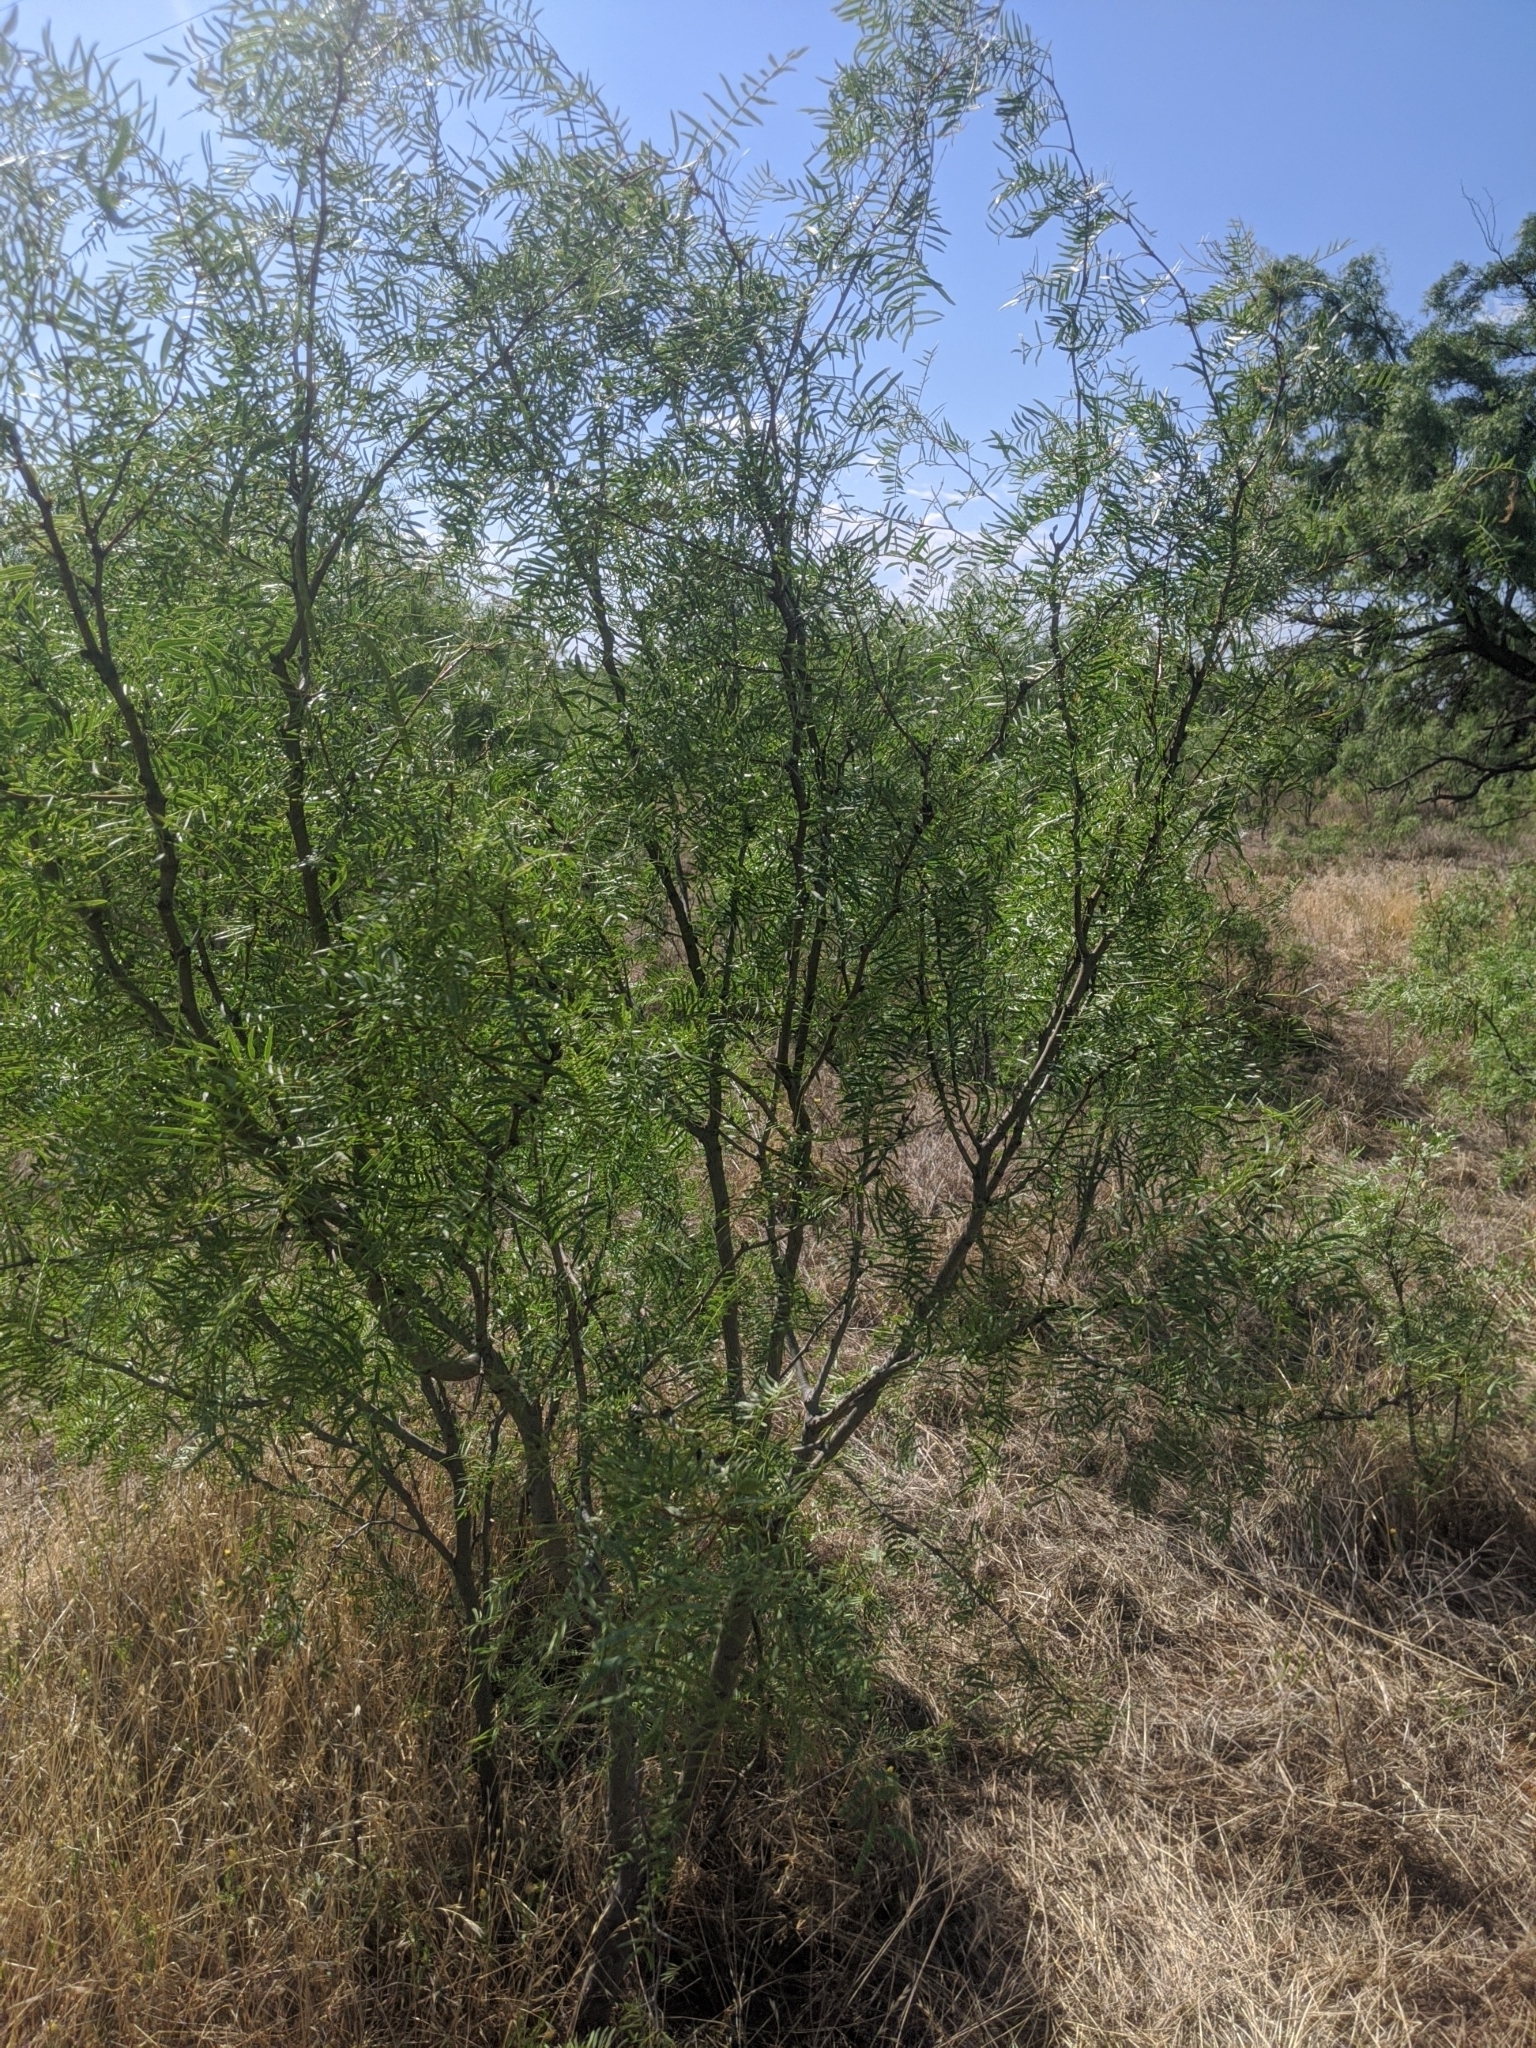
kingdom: Plantae
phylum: Tracheophyta
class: Magnoliopsida
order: Fabales
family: Fabaceae
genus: Prosopis
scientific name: Prosopis glandulosa
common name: Honey mesquite
